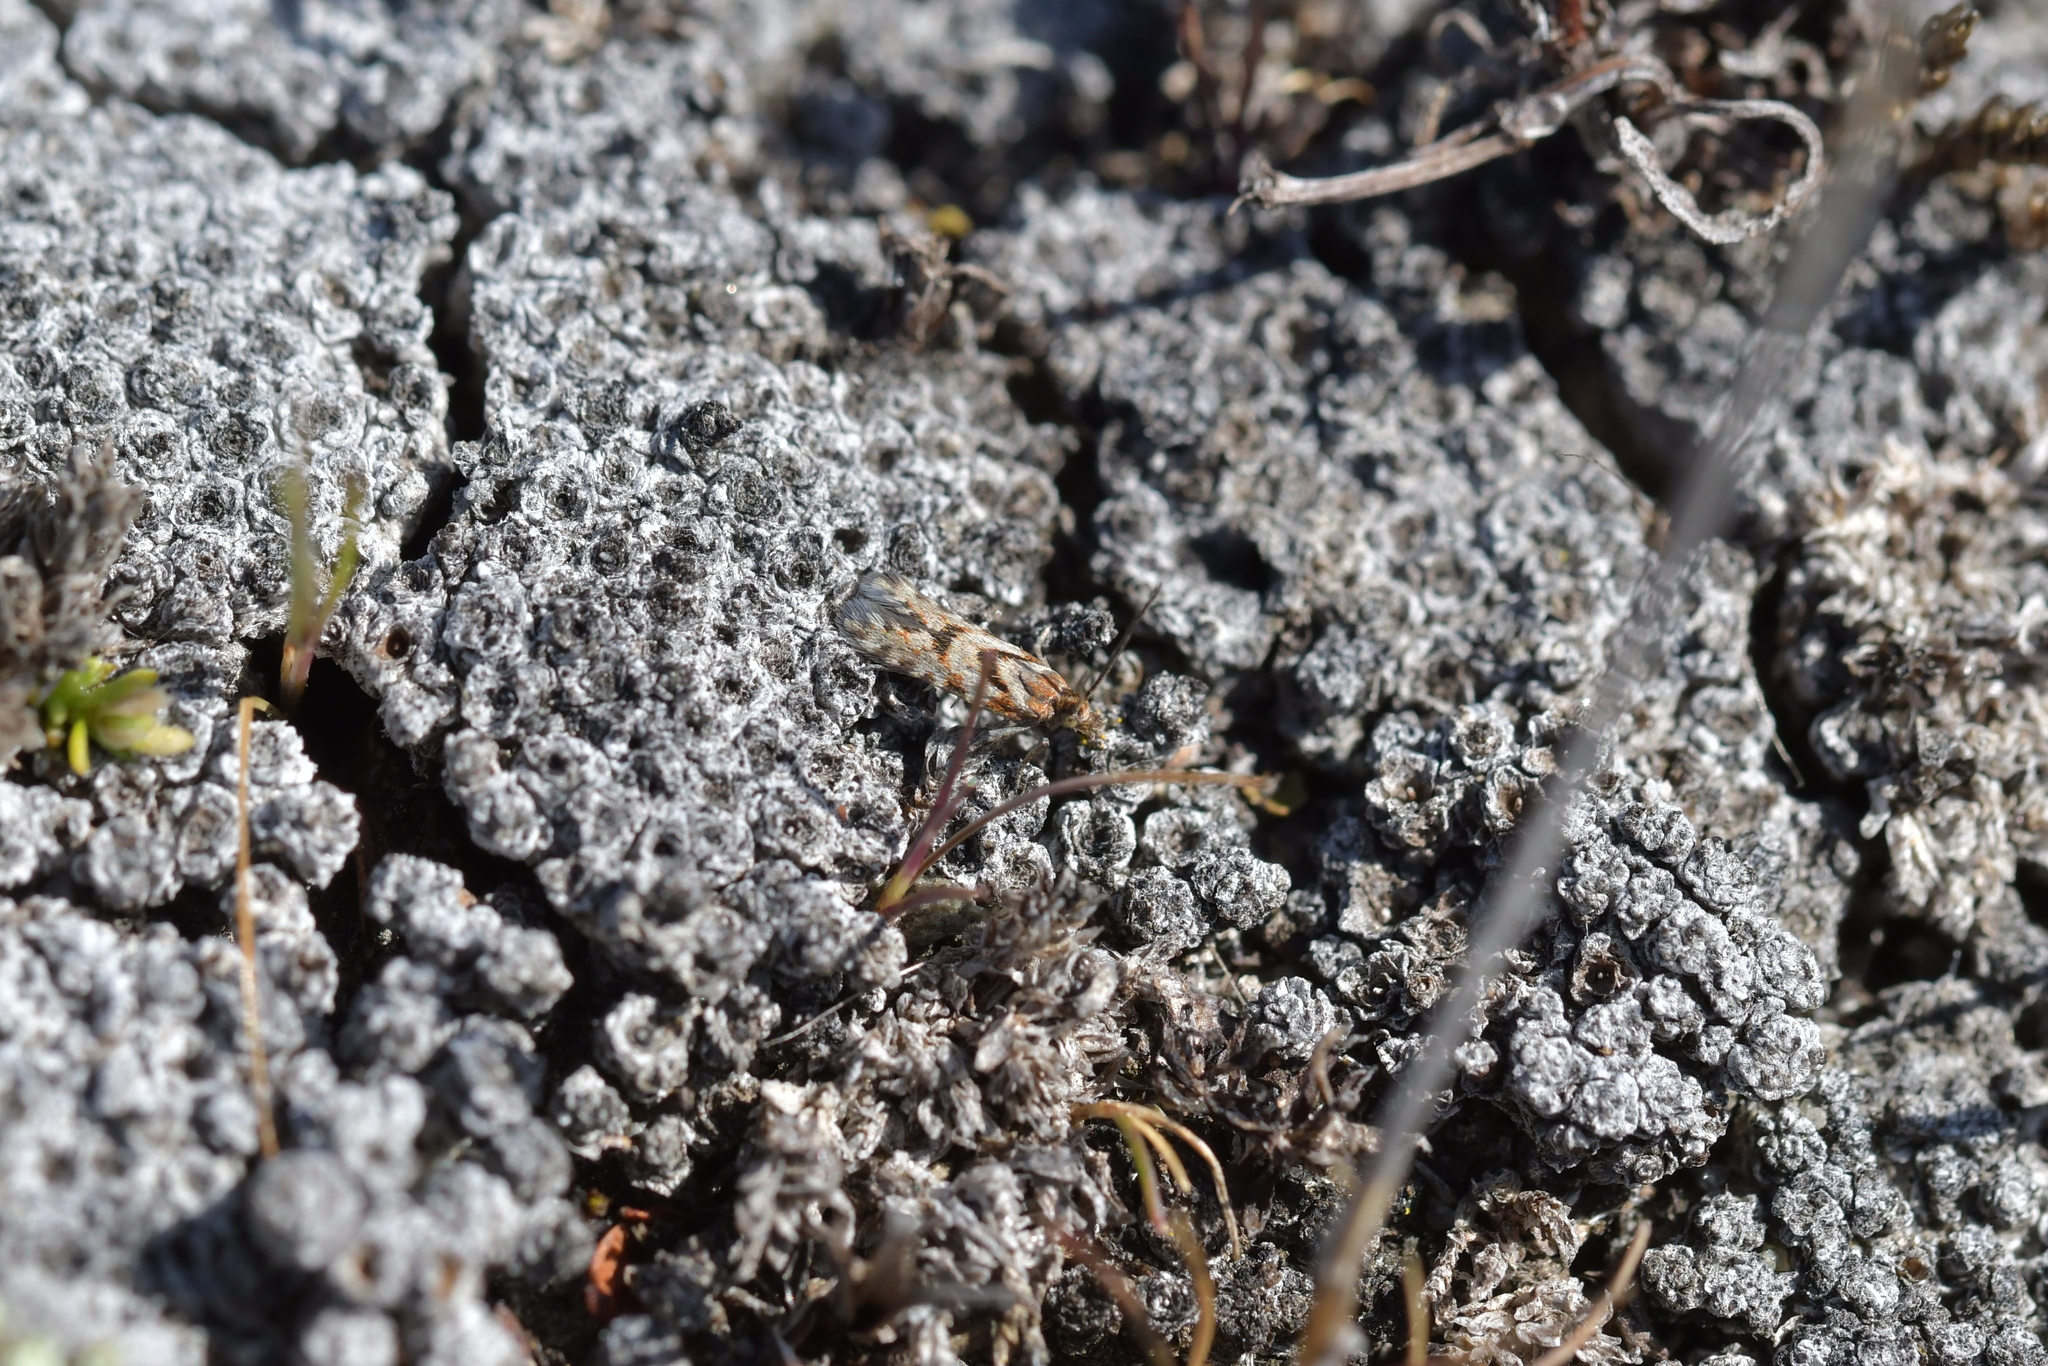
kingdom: Animalia
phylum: Arthropoda
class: Insecta
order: Lepidoptera
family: Tortricidae
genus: Eurythecta
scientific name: Eurythecta zelaea
